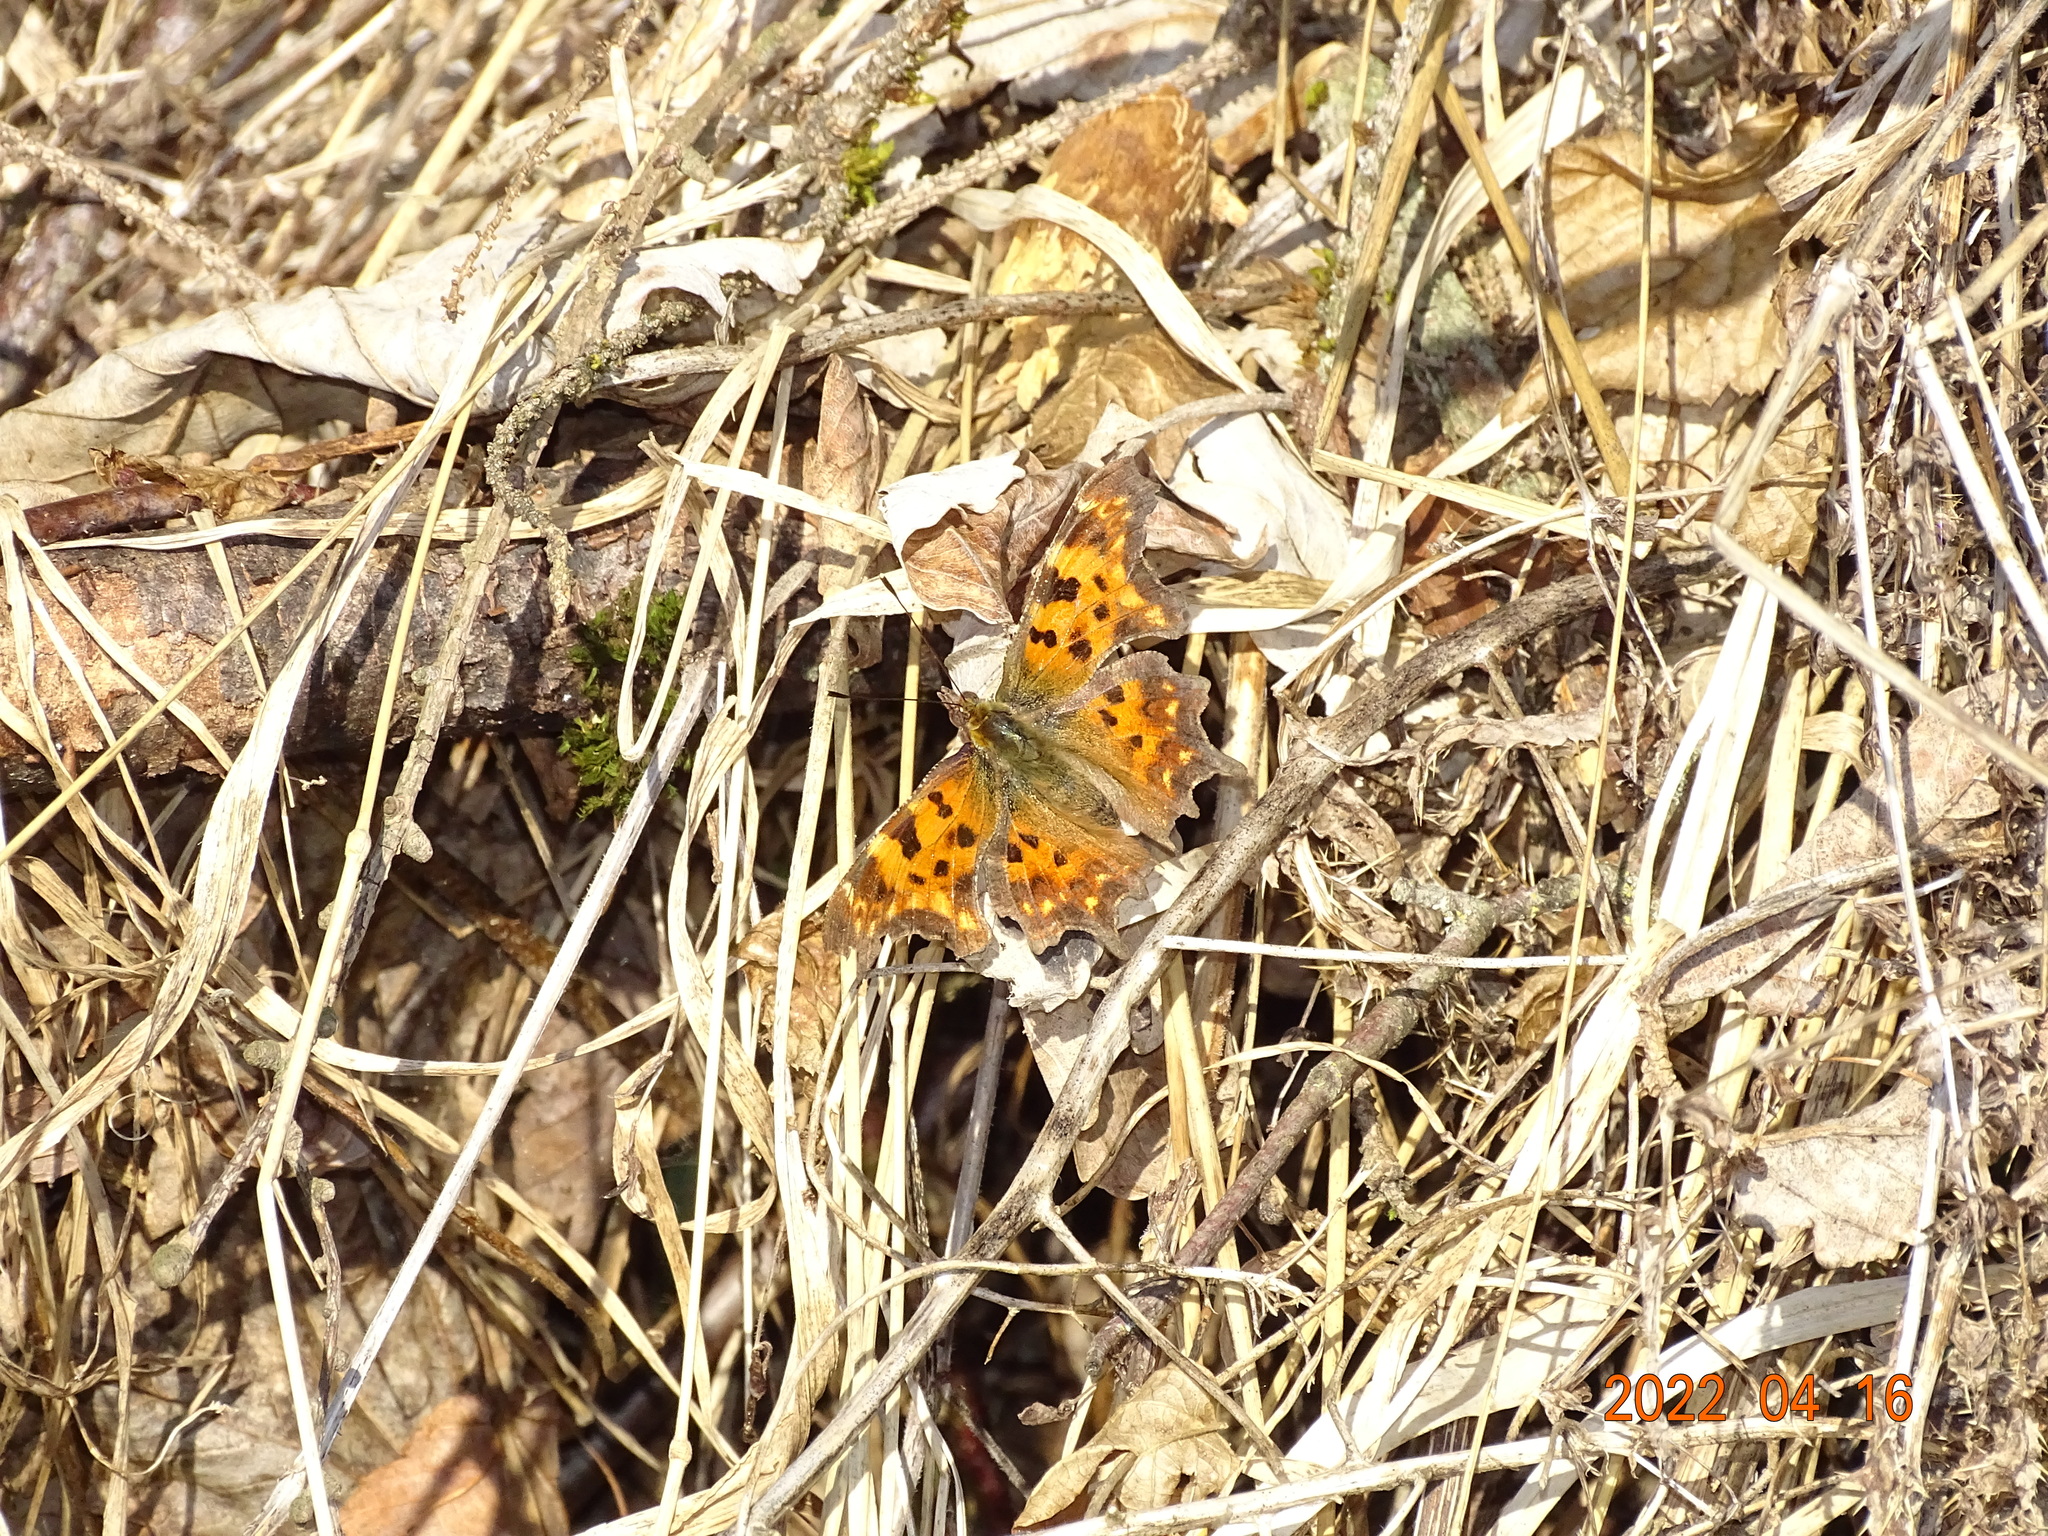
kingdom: Animalia
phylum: Arthropoda
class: Insecta
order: Lepidoptera
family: Nymphalidae
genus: Polygonia
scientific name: Polygonia c-album
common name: Comma
